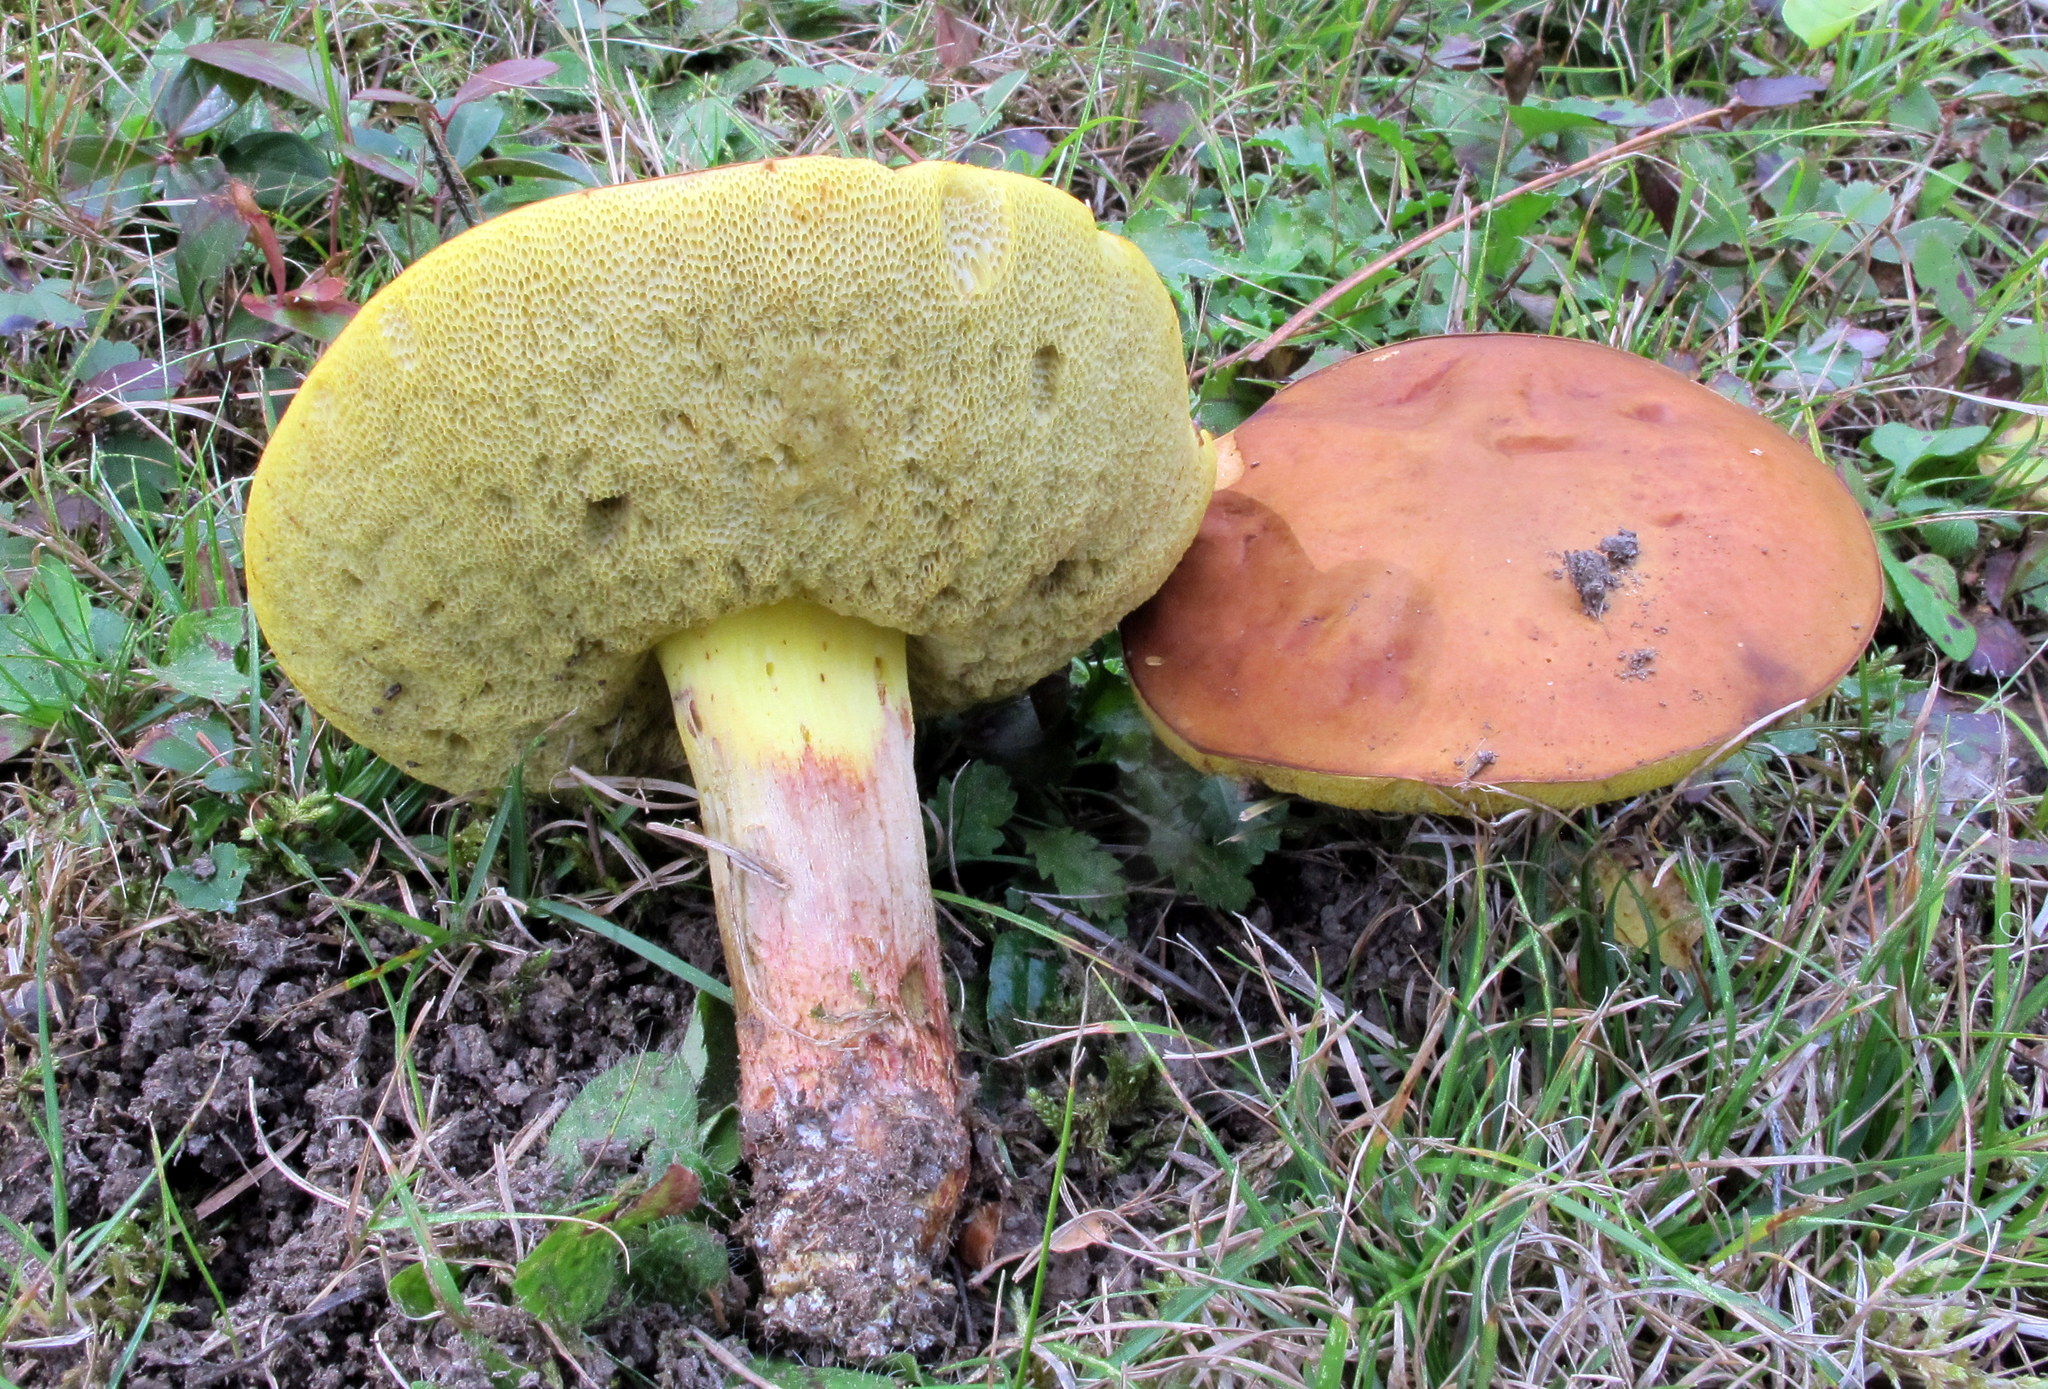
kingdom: Fungi
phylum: Basidiomycota
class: Agaricomycetes
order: Boletales
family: Boletaceae
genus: Hemileccinum
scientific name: Hemileccinum subglabripes
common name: Smoothish-stemmed bolete
